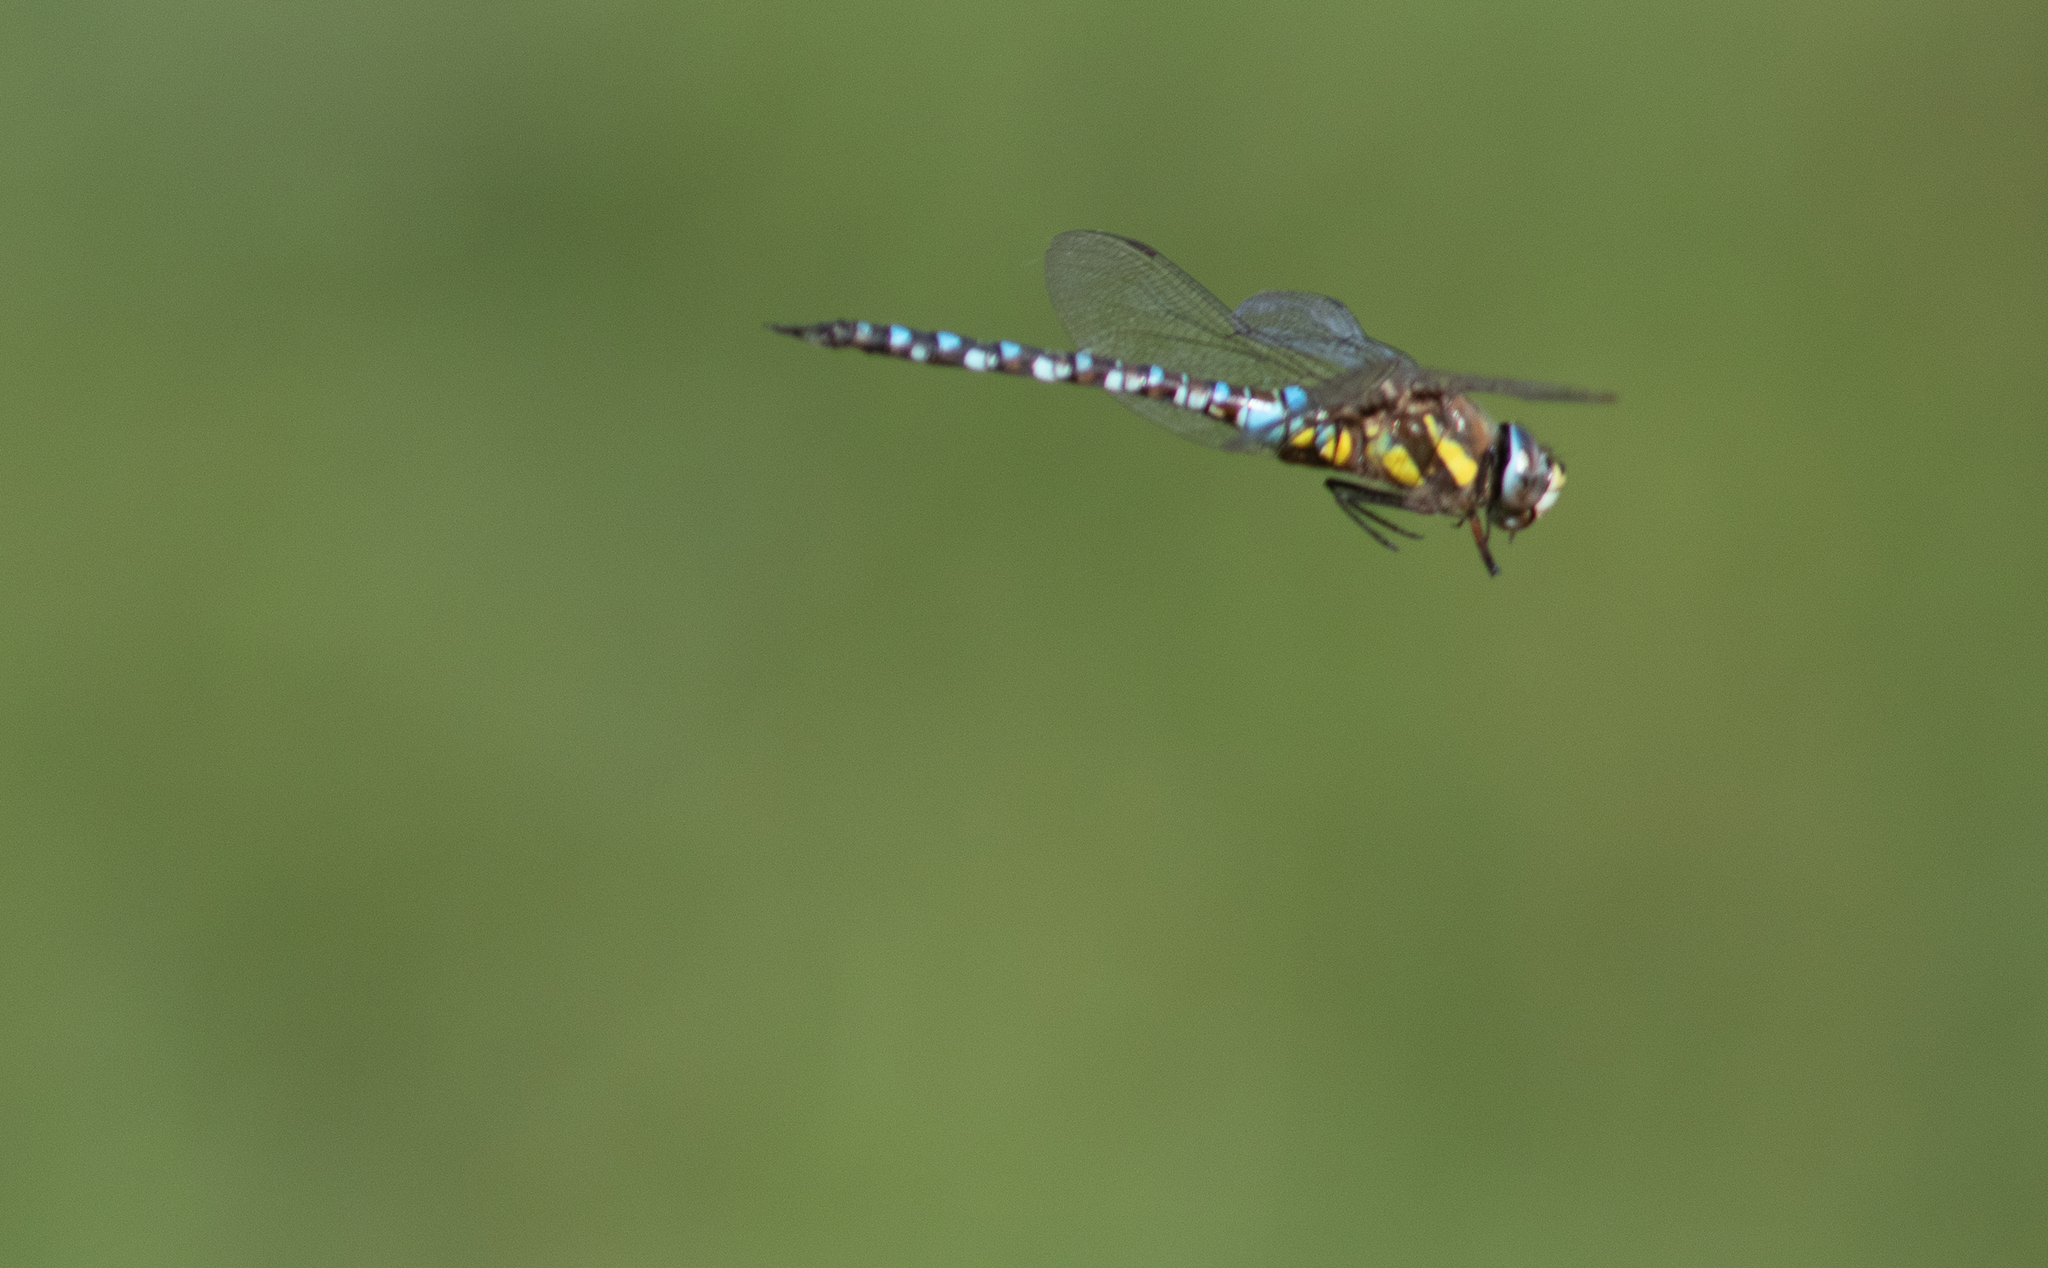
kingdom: Animalia
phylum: Arthropoda
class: Insecta
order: Odonata
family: Aeshnidae
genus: Aeshna
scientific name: Aeshna mixta
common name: Migrant hawker
